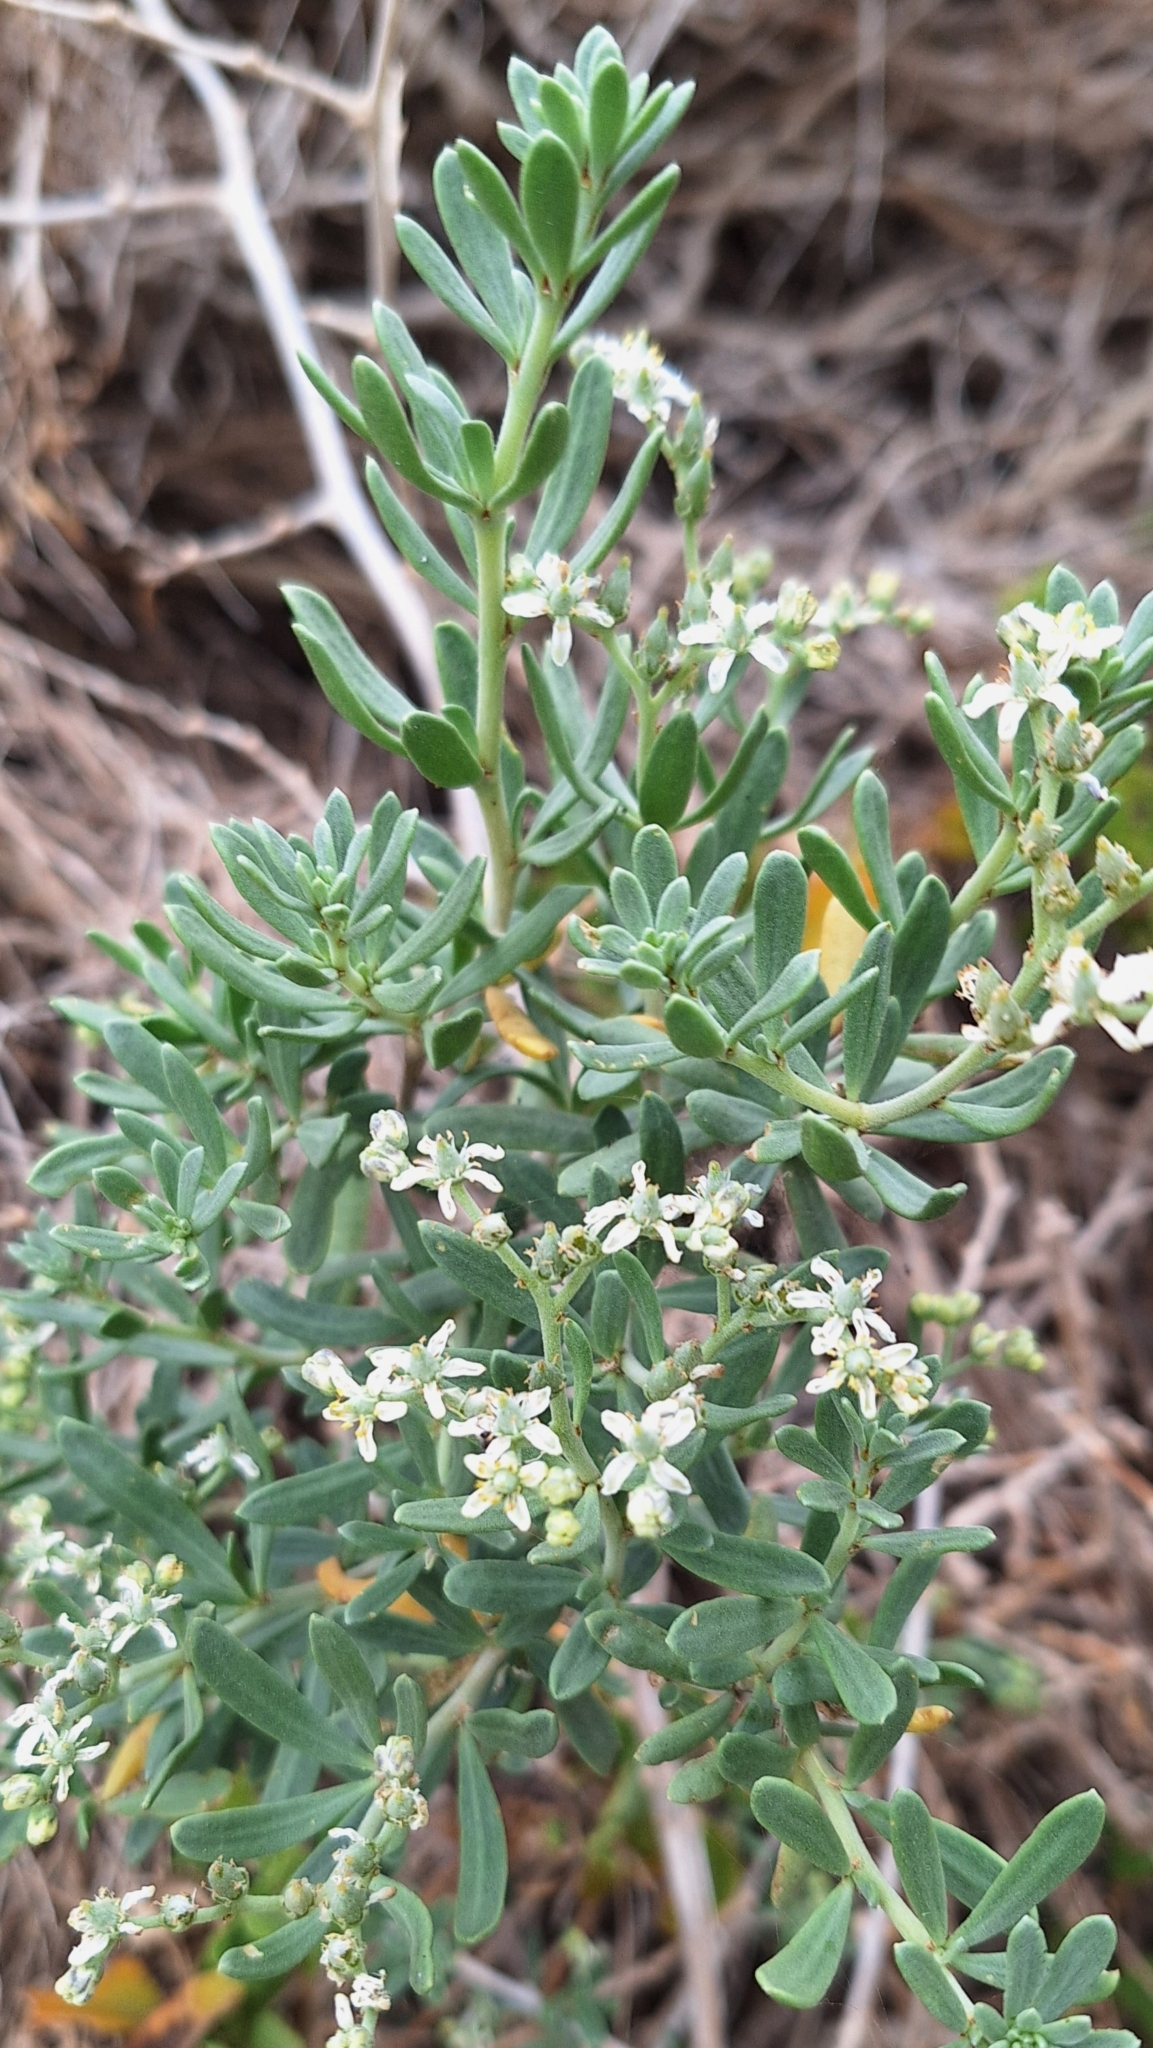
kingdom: Plantae
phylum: Tracheophyta
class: Magnoliopsida
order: Sapindales
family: Nitrariaceae
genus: Nitraria
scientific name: Nitraria billardierei
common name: Dillonbush
